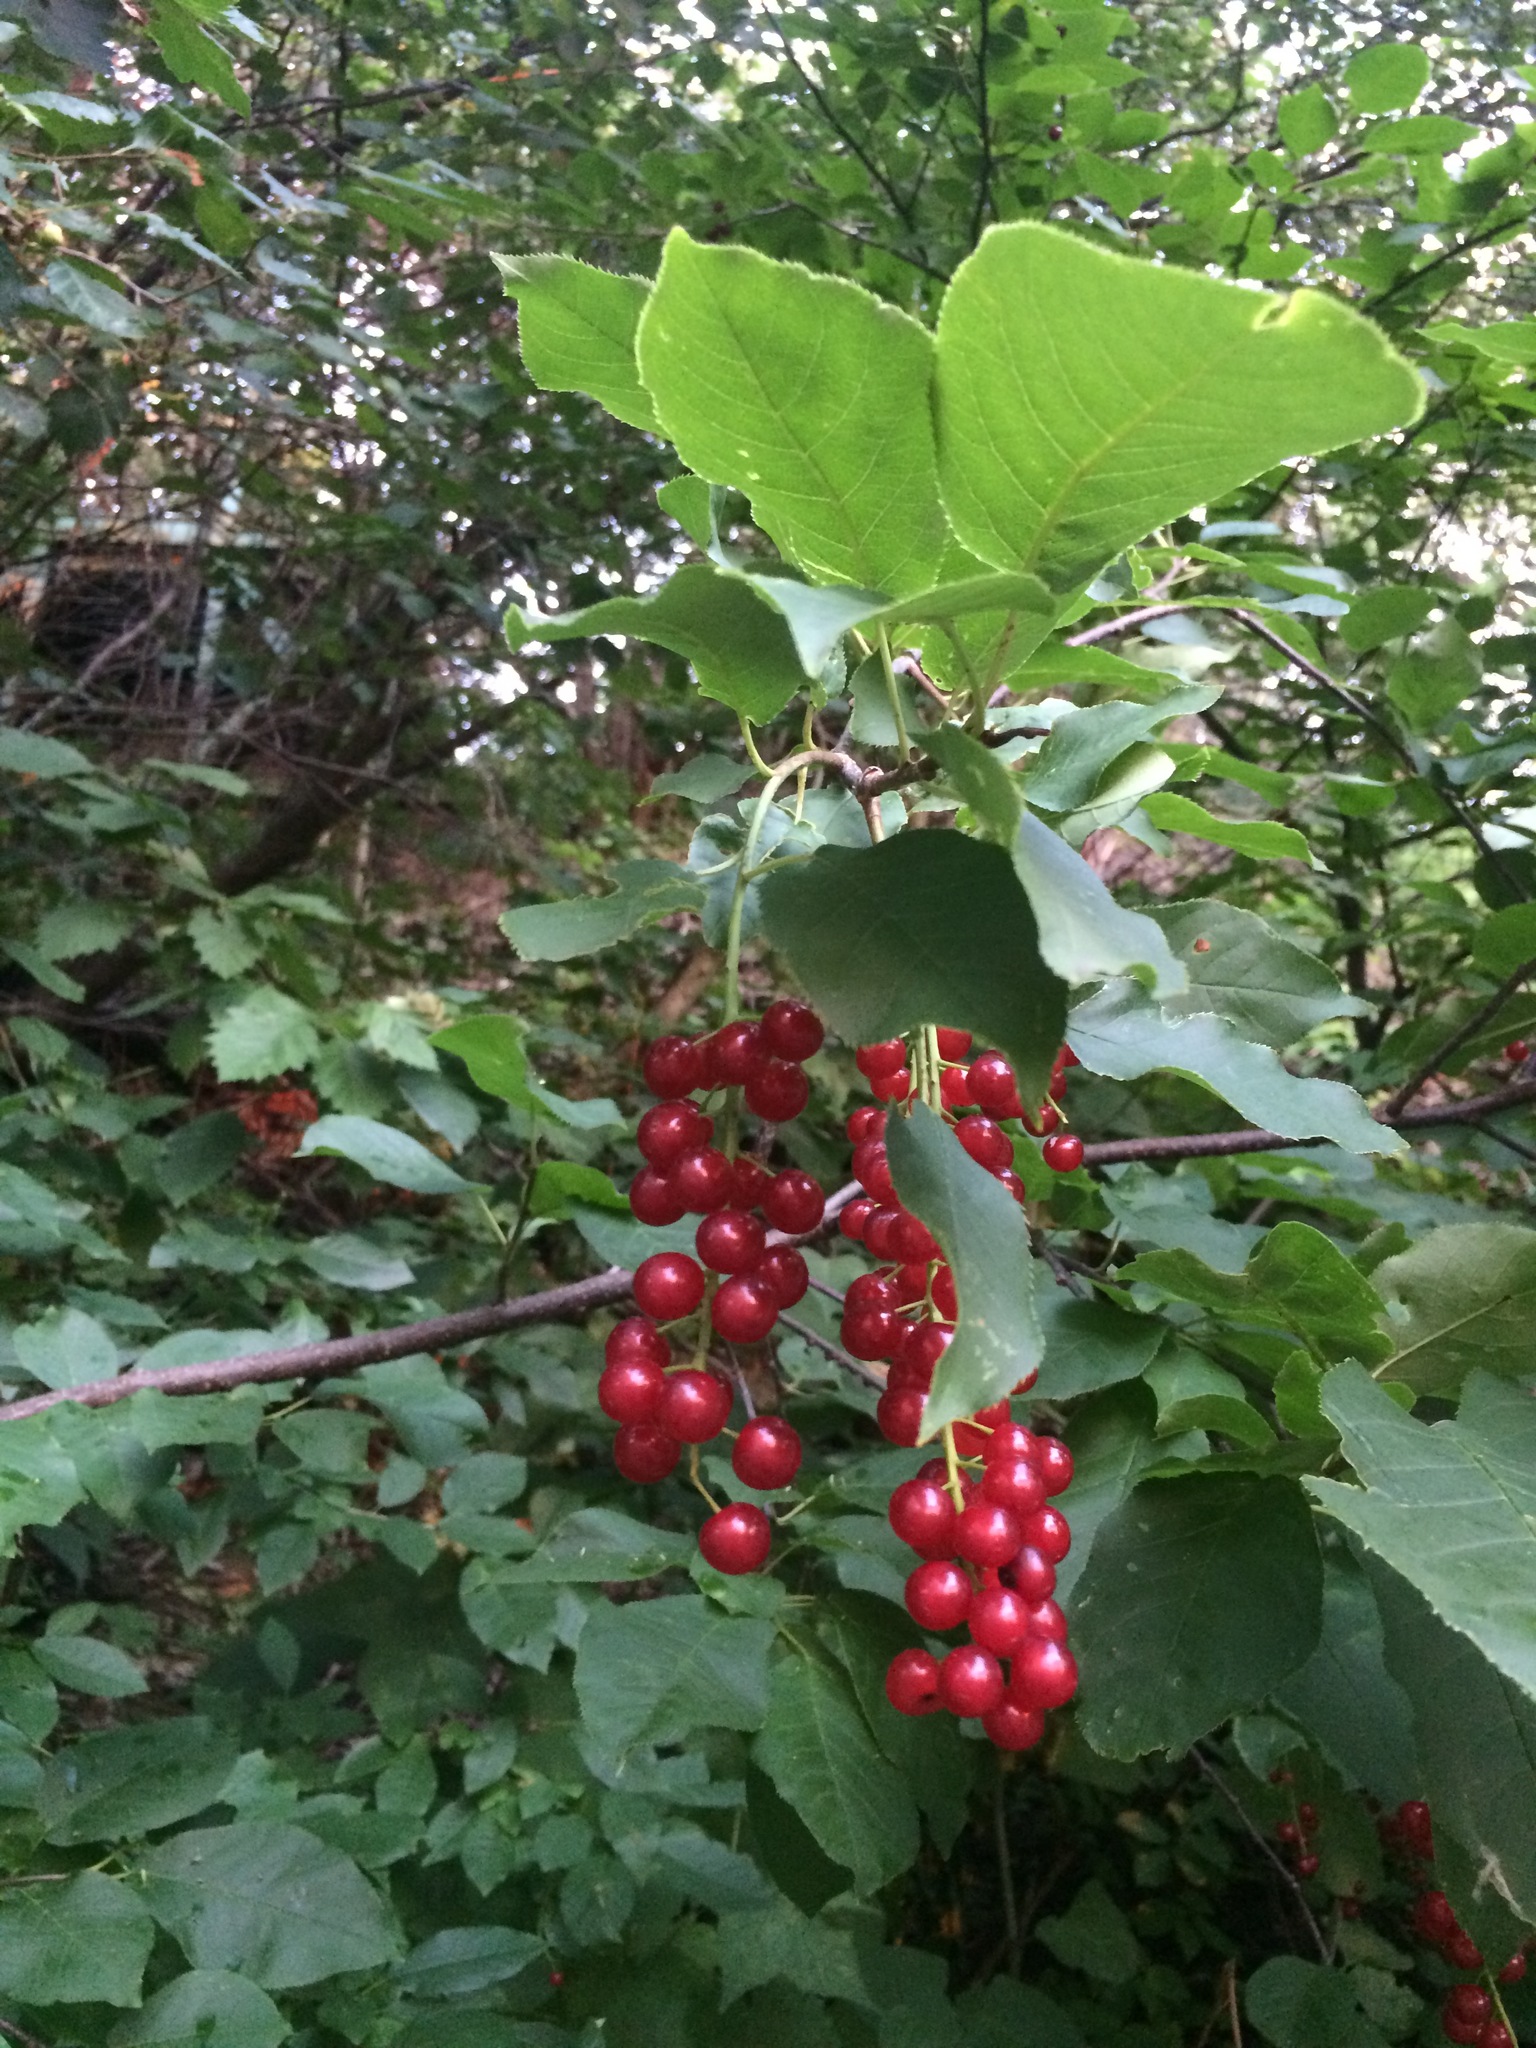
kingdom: Plantae
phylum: Tracheophyta
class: Magnoliopsida
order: Rosales
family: Rosaceae
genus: Prunus
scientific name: Prunus virginiana
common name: Chokecherry
